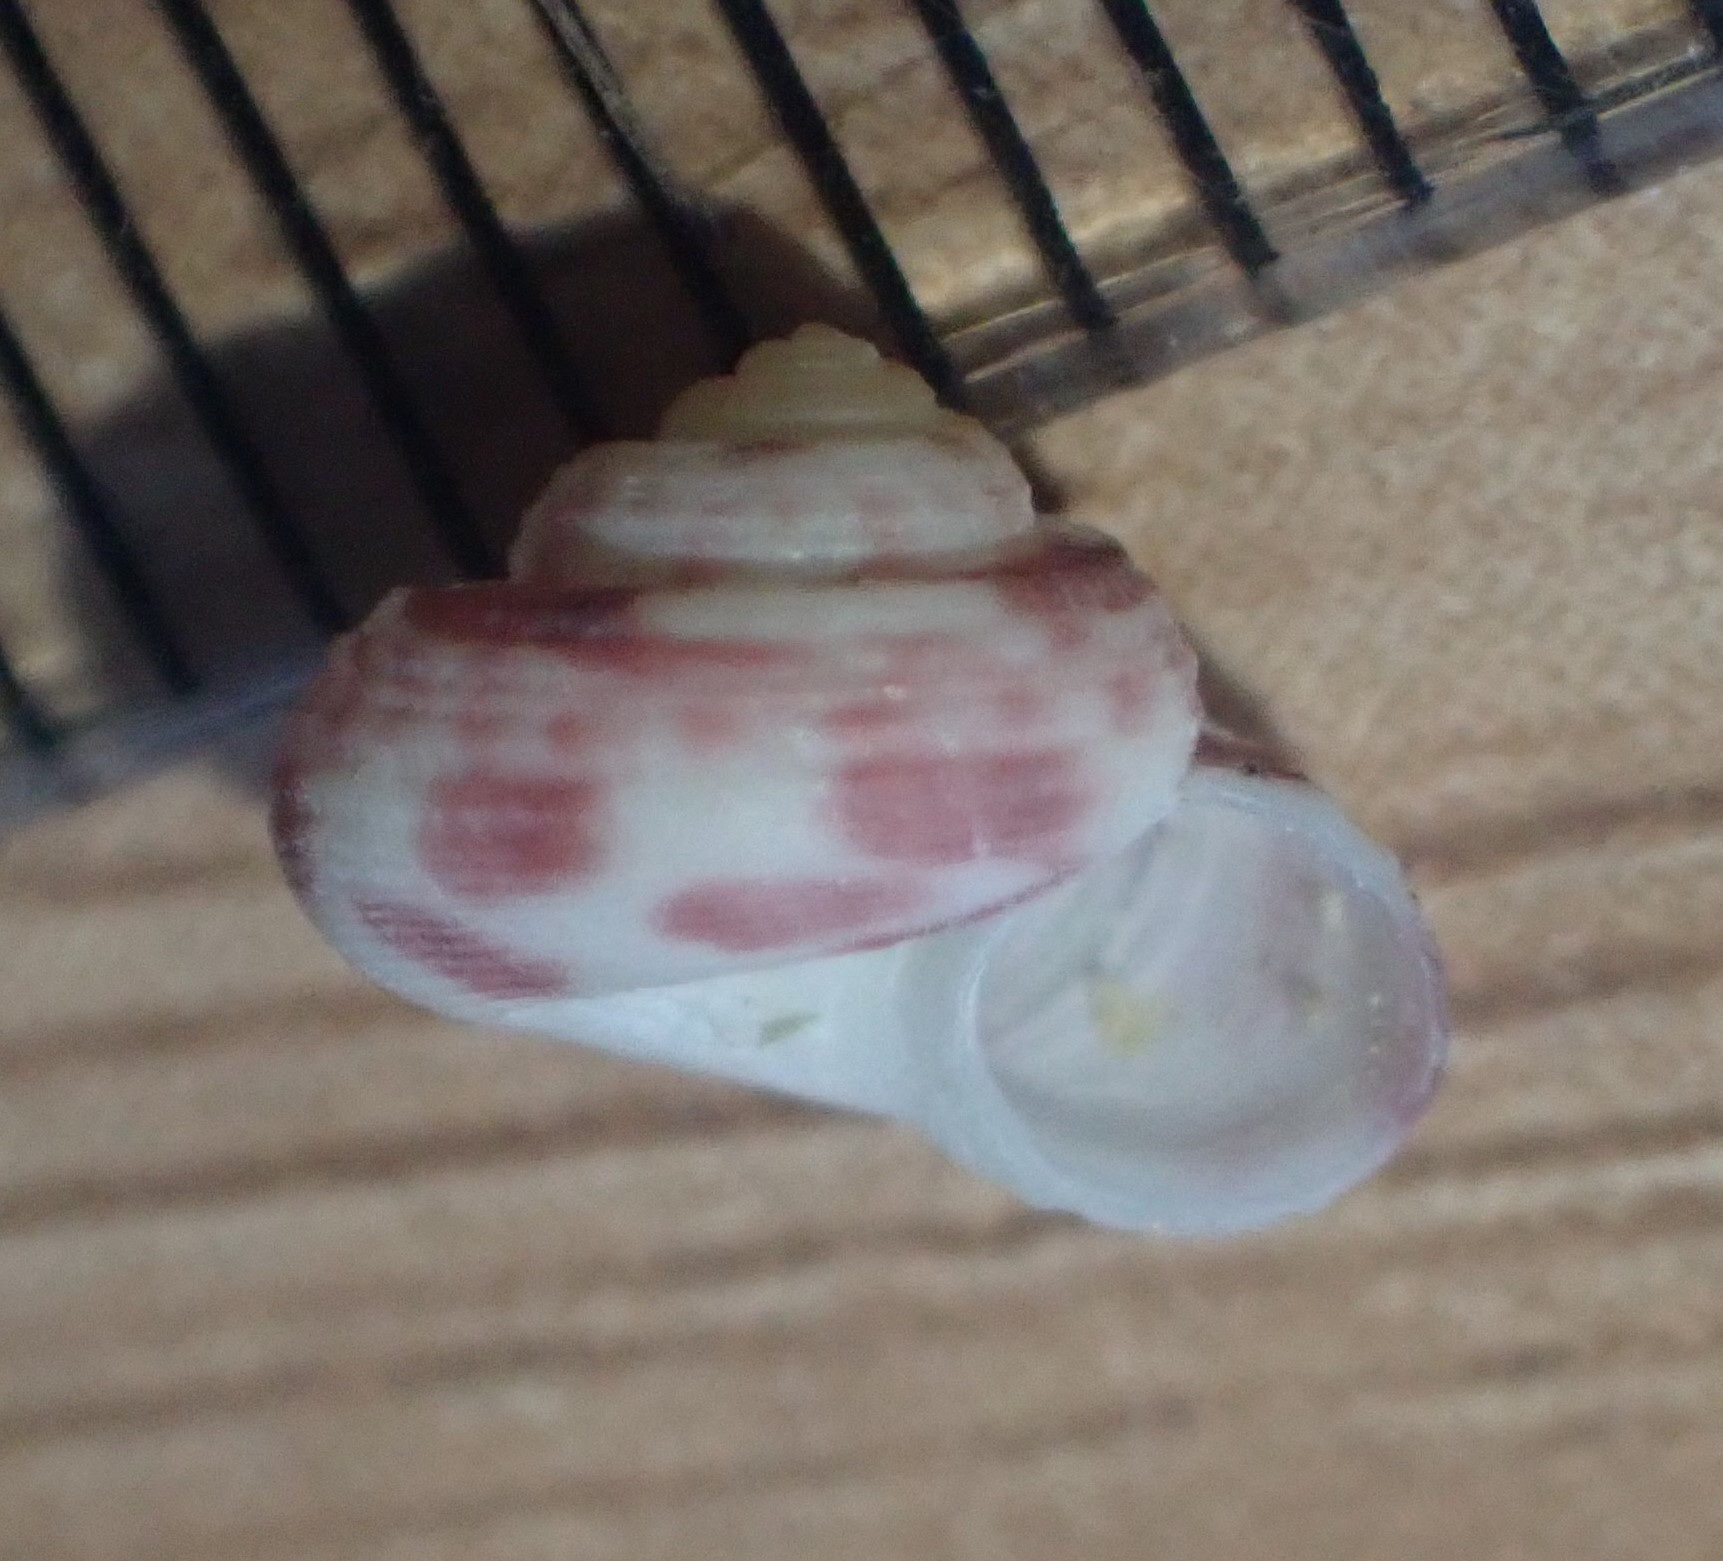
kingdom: Animalia
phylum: Mollusca
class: Gastropoda
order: Trochida
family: Solariellidae
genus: Spectamen
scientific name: Spectamen tryphenense
